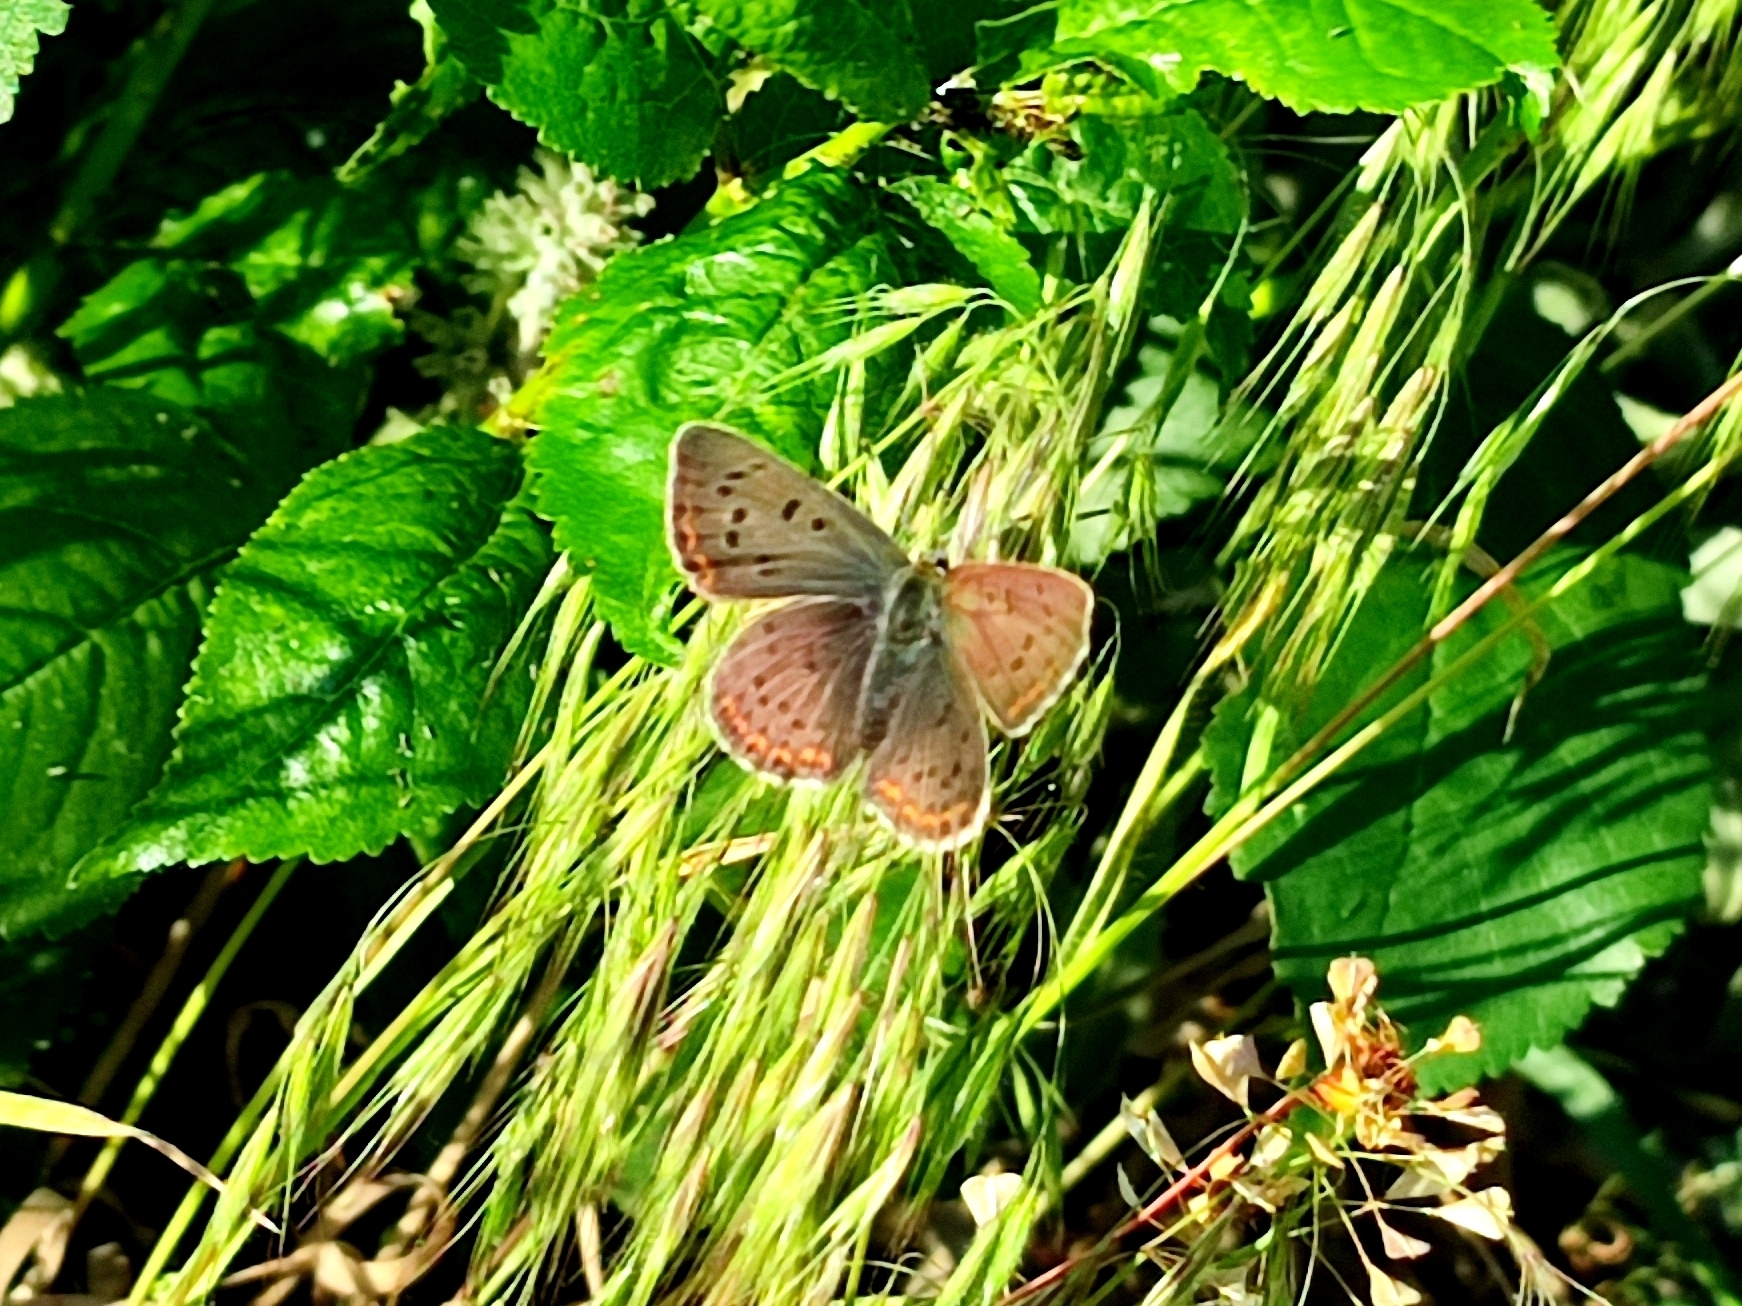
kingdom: Animalia
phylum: Arthropoda
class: Insecta
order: Lepidoptera
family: Lycaenidae
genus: Loweia
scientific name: Loweia tityrus
